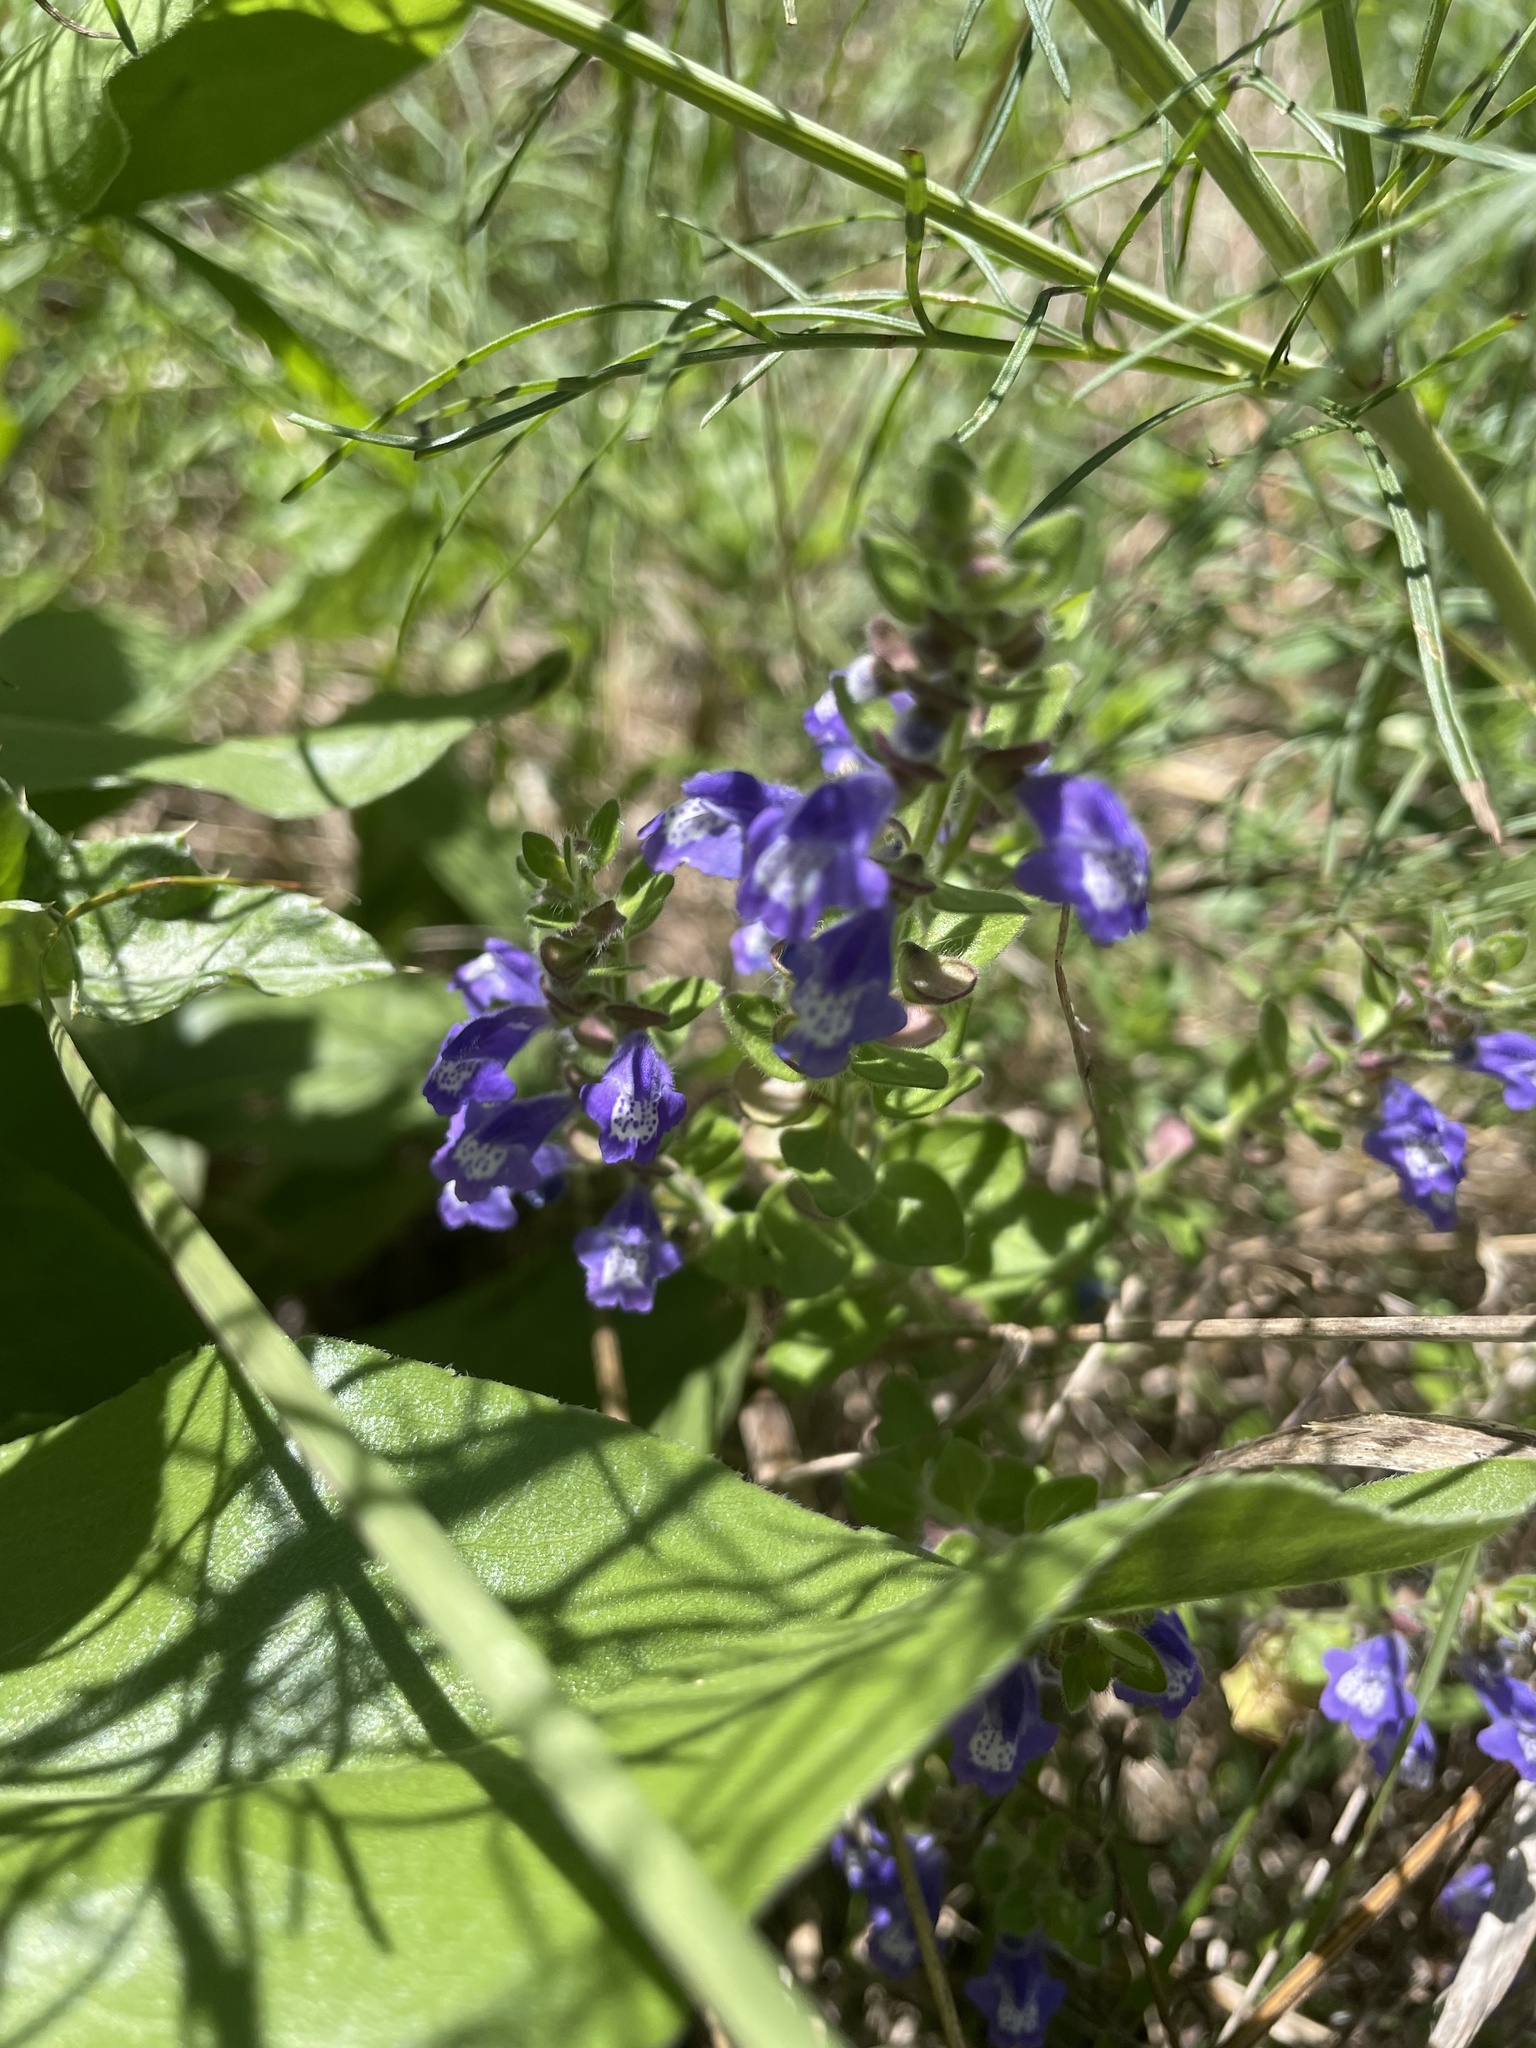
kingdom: Plantae
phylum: Tracheophyta
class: Magnoliopsida
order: Lamiales
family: Lamiaceae
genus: Scutellaria
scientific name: Scutellaria drummondii
